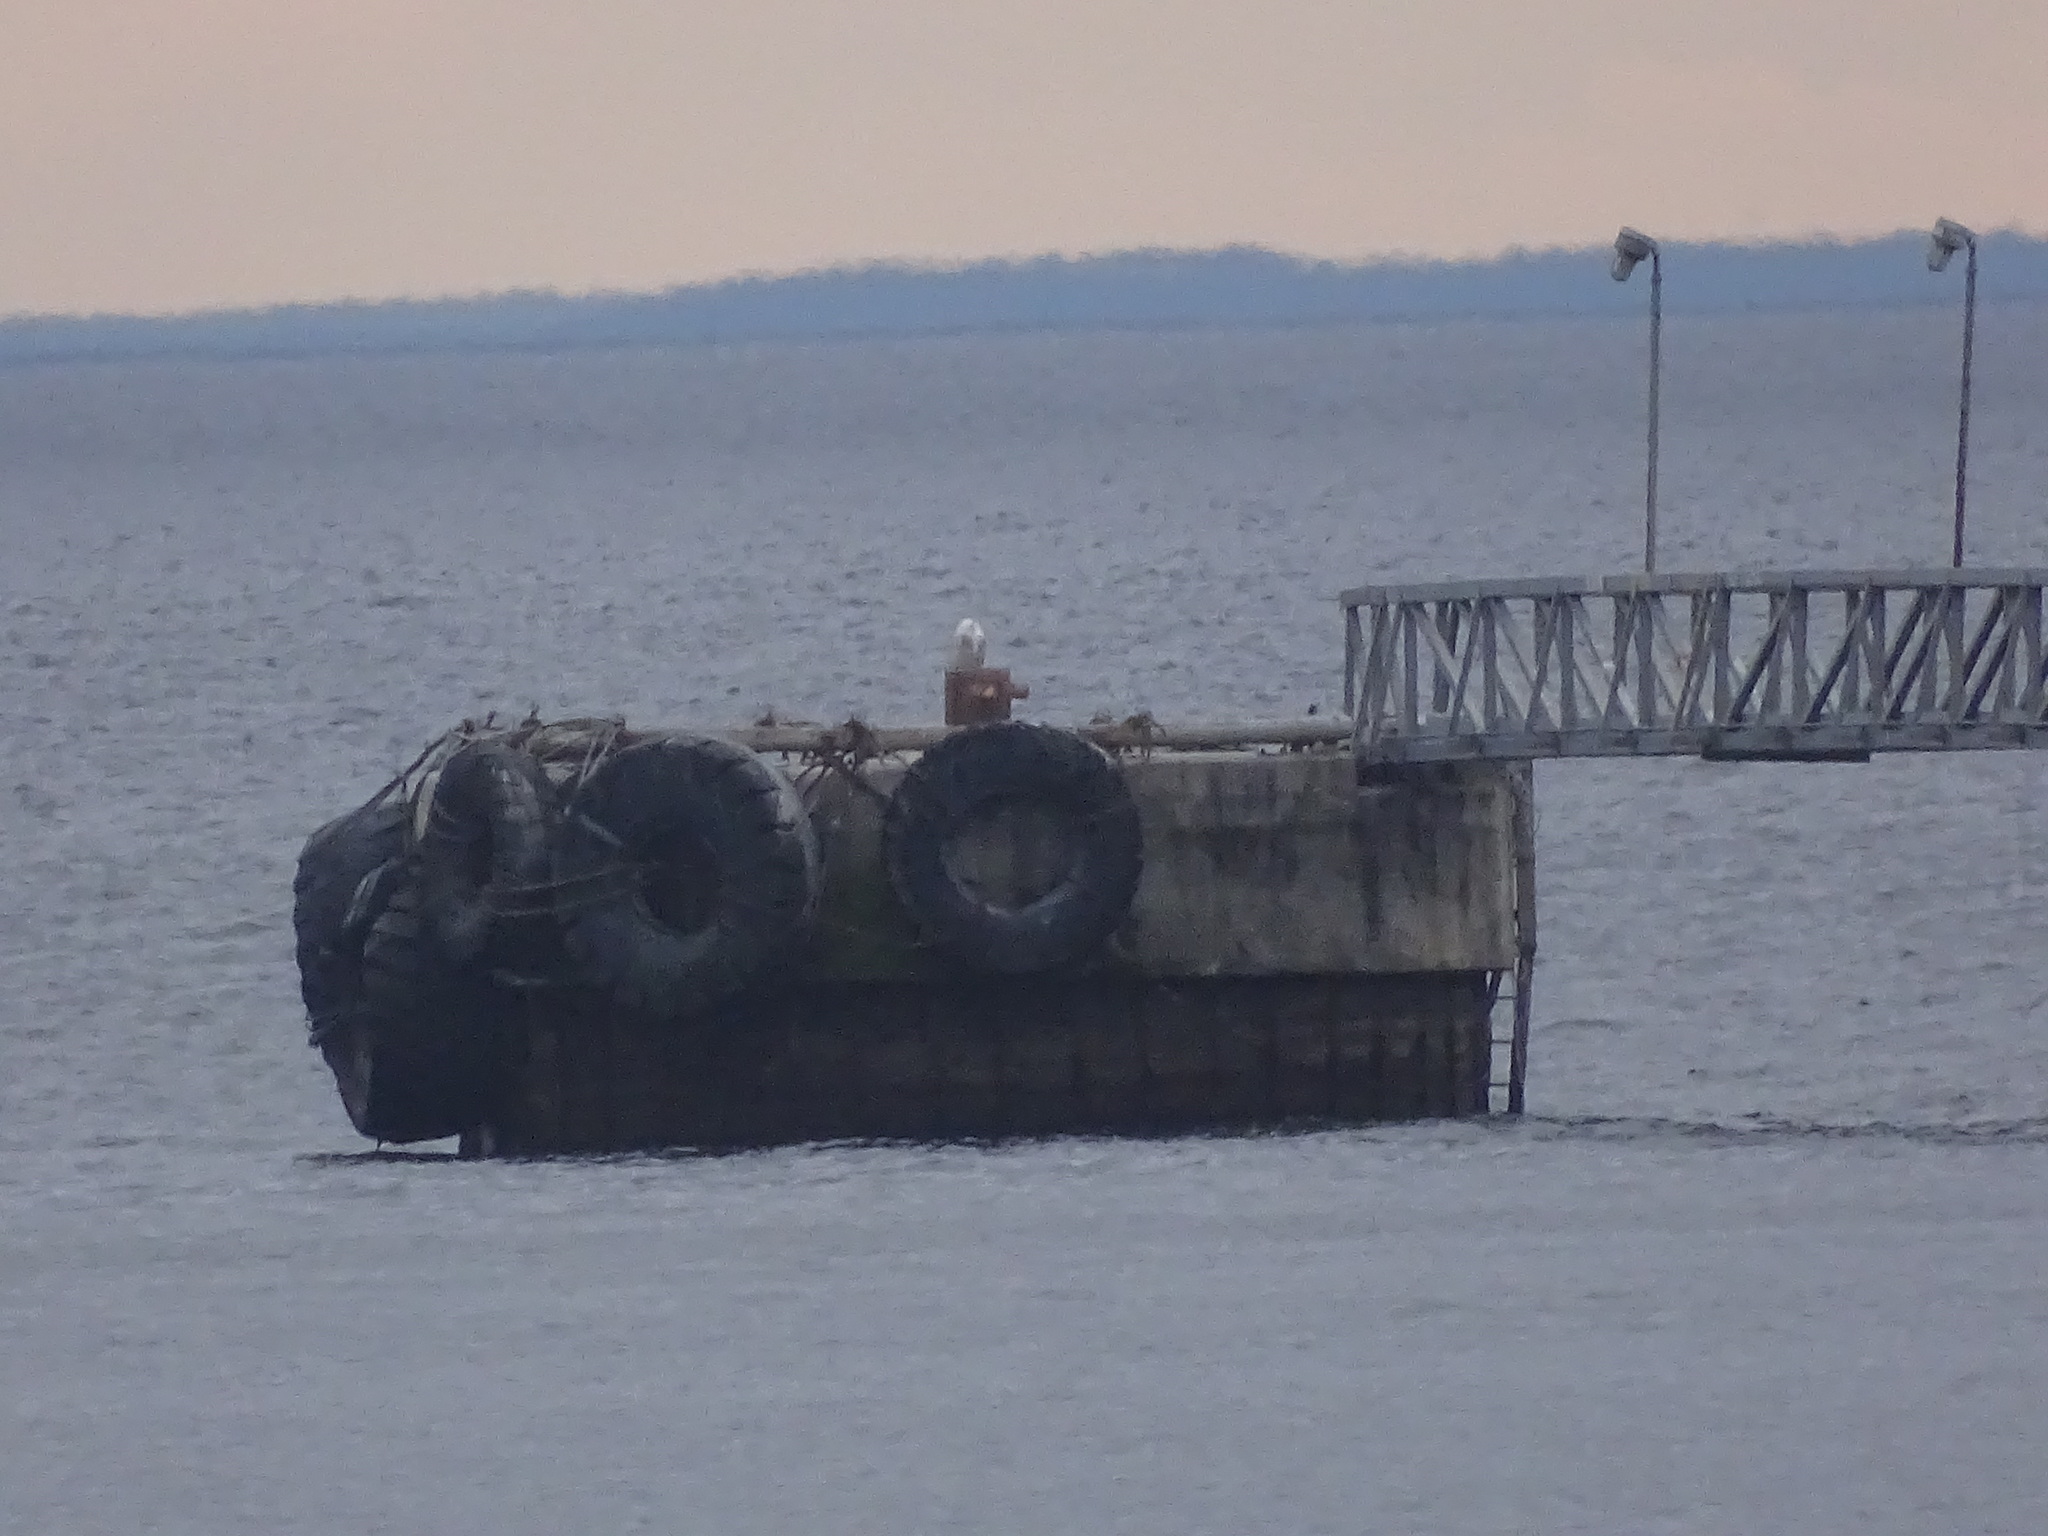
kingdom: Animalia
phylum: Chordata
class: Aves
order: Strigiformes
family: Strigidae
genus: Bubo
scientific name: Bubo scandiacus
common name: Snowy owl
